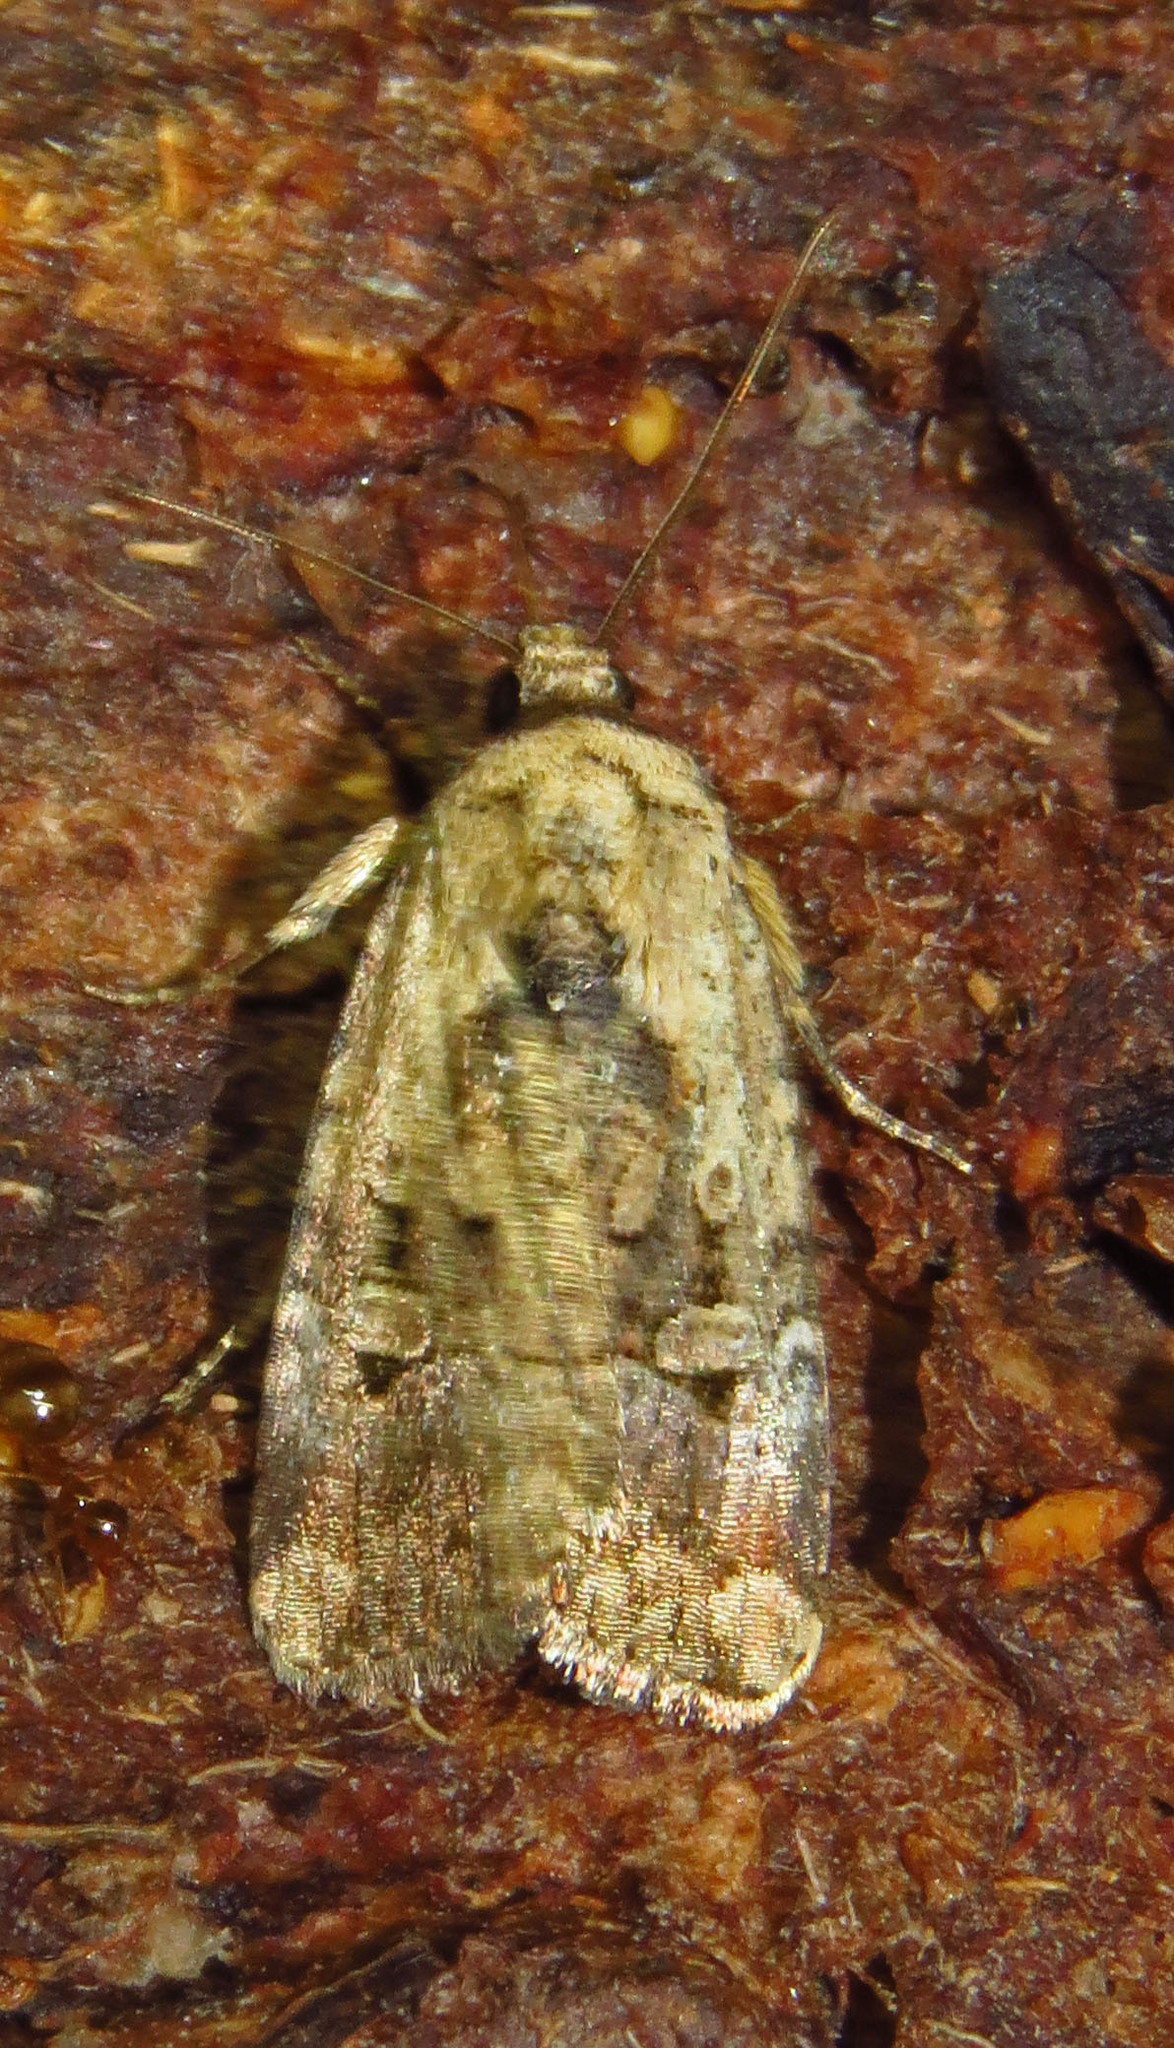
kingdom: Animalia
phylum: Arthropoda
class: Insecta
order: Lepidoptera
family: Noctuidae
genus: Elaphria
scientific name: Elaphria chalcedonia
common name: Chalcedony midget
